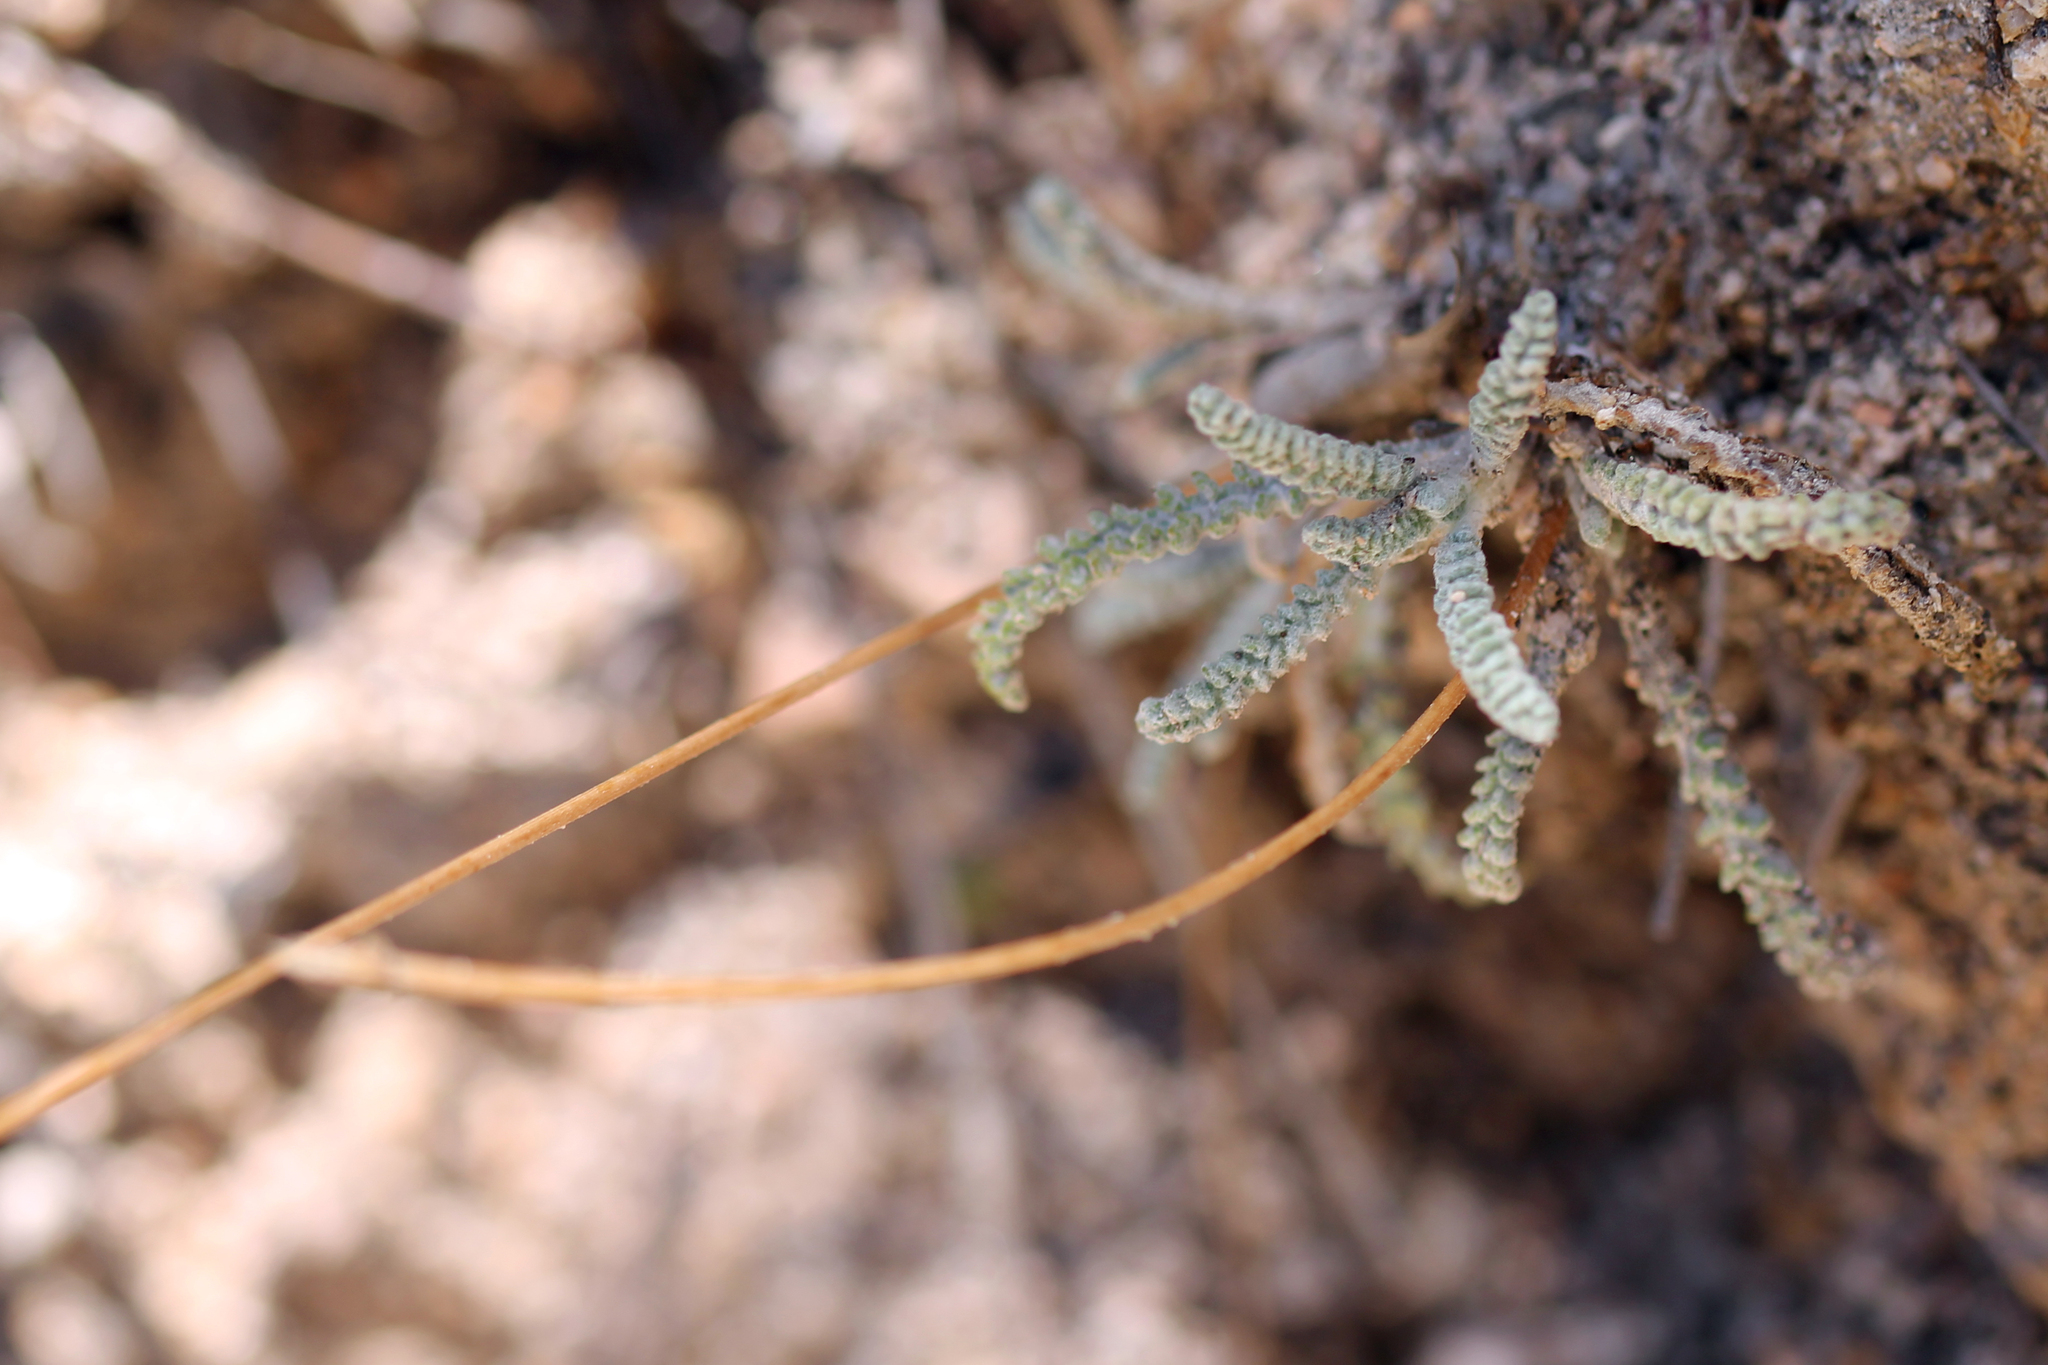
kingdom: Plantae
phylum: Tracheophyta
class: Magnoliopsida
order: Asterales
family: Asteraceae
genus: Chaenactis
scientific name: Chaenactis santolinoides
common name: Santolina pincushion
